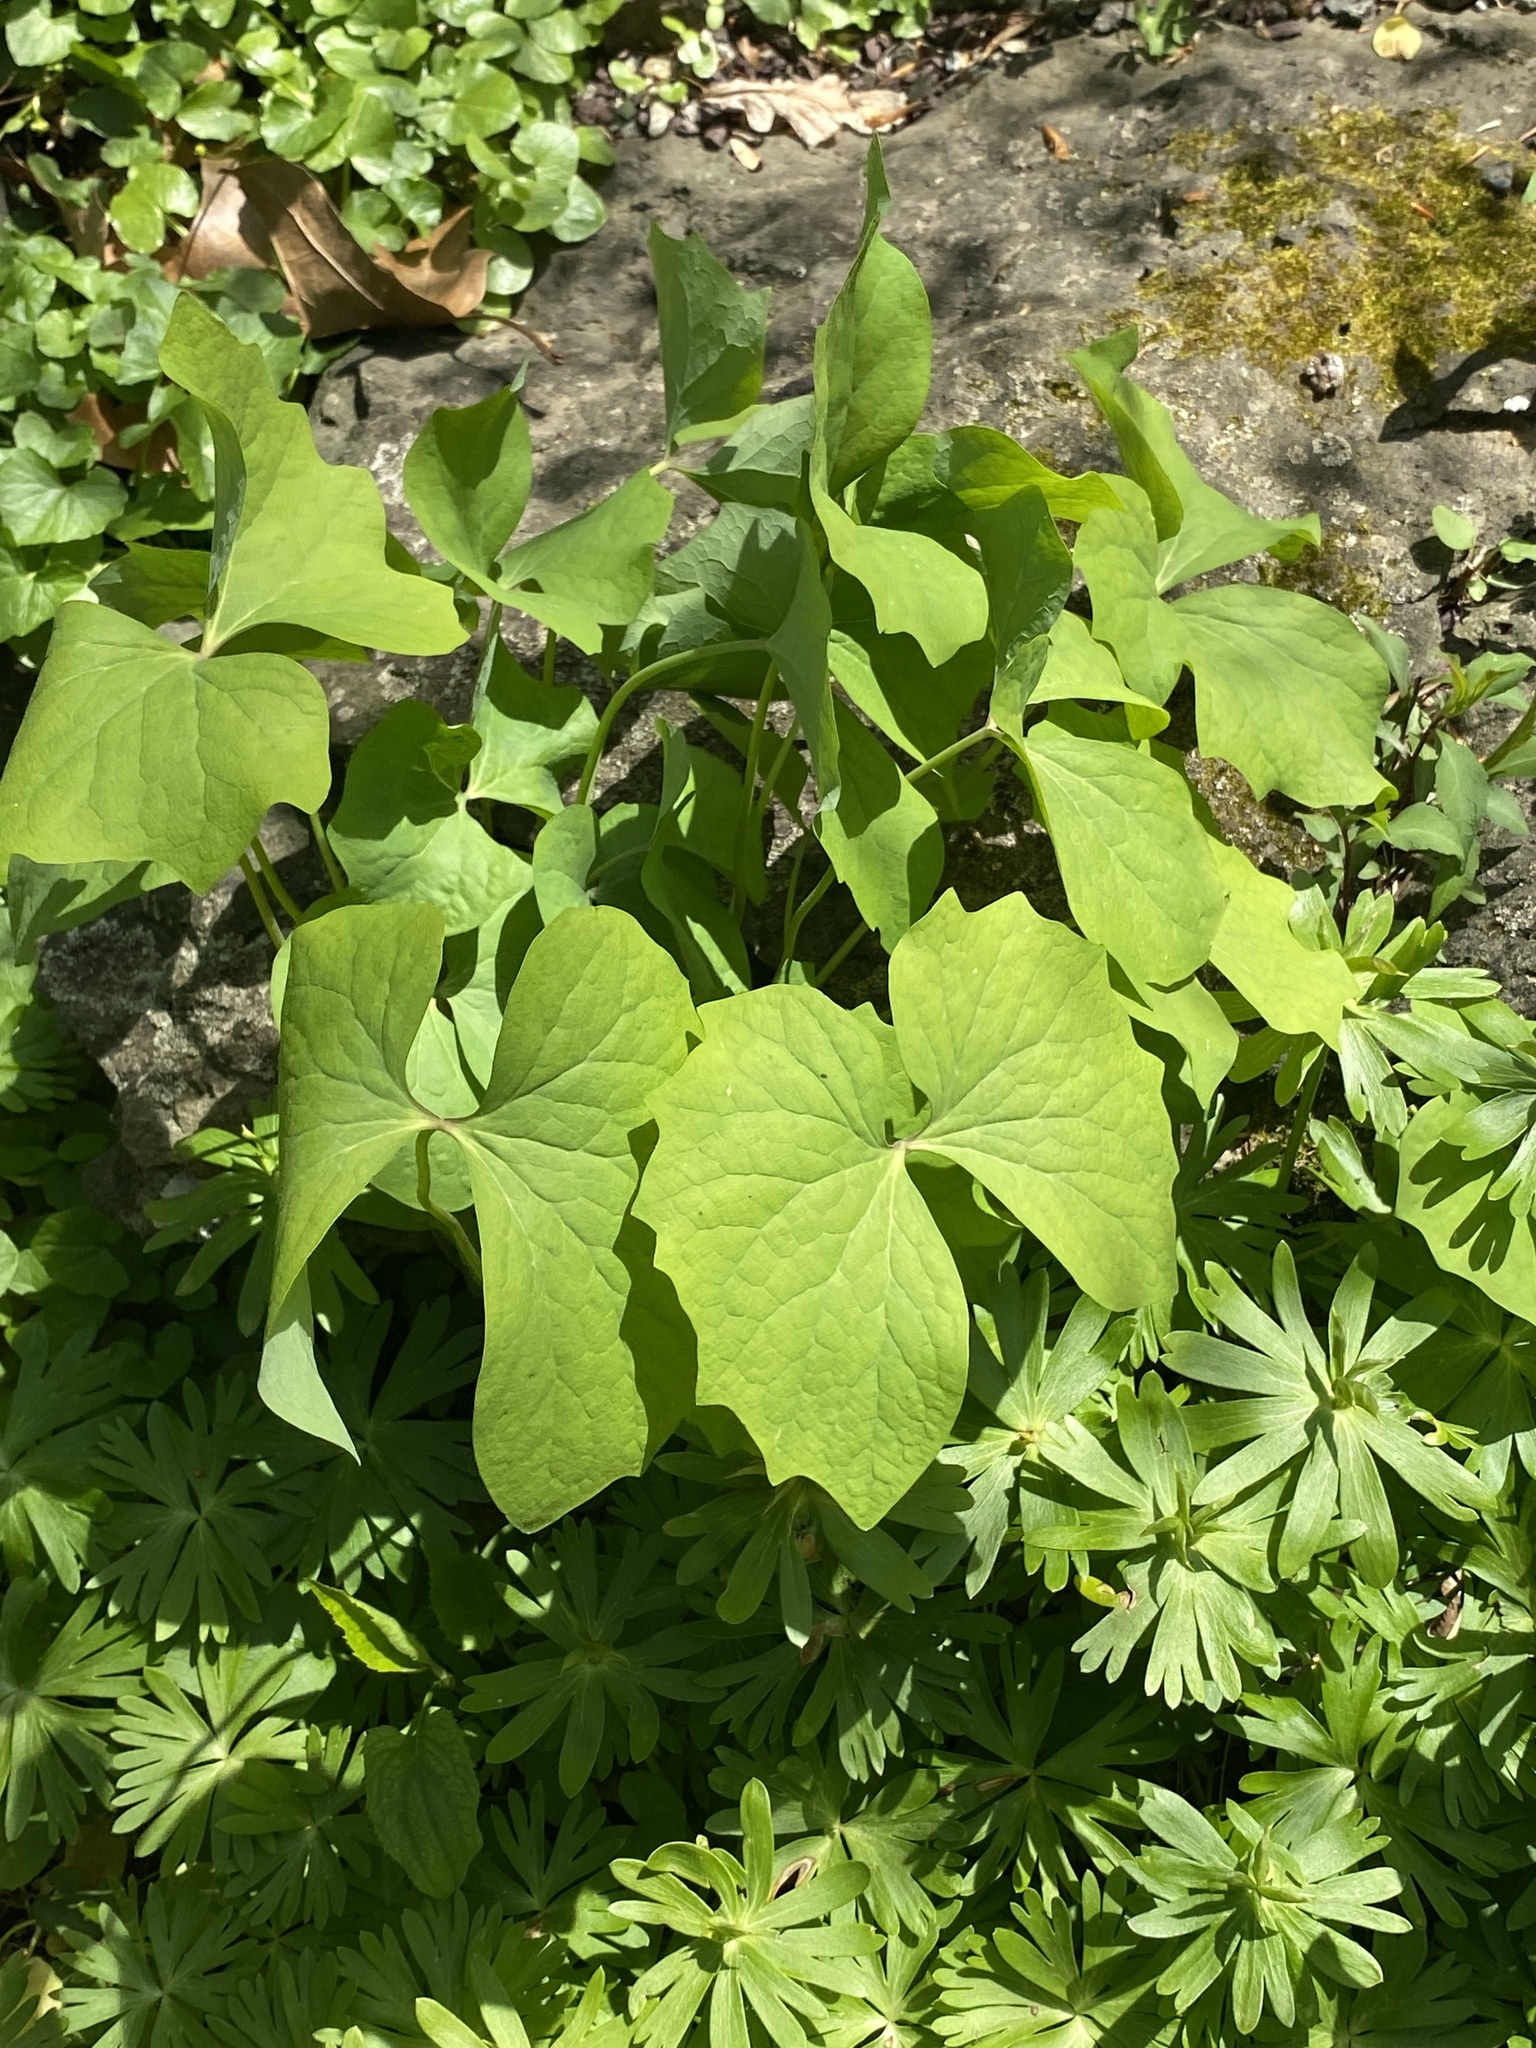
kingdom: Plantae
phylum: Tracheophyta
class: Magnoliopsida
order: Ranunculales
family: Berberidaceae
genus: Jeffersonia
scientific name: Jeffersonia diphylla
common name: Rheumatism-root
